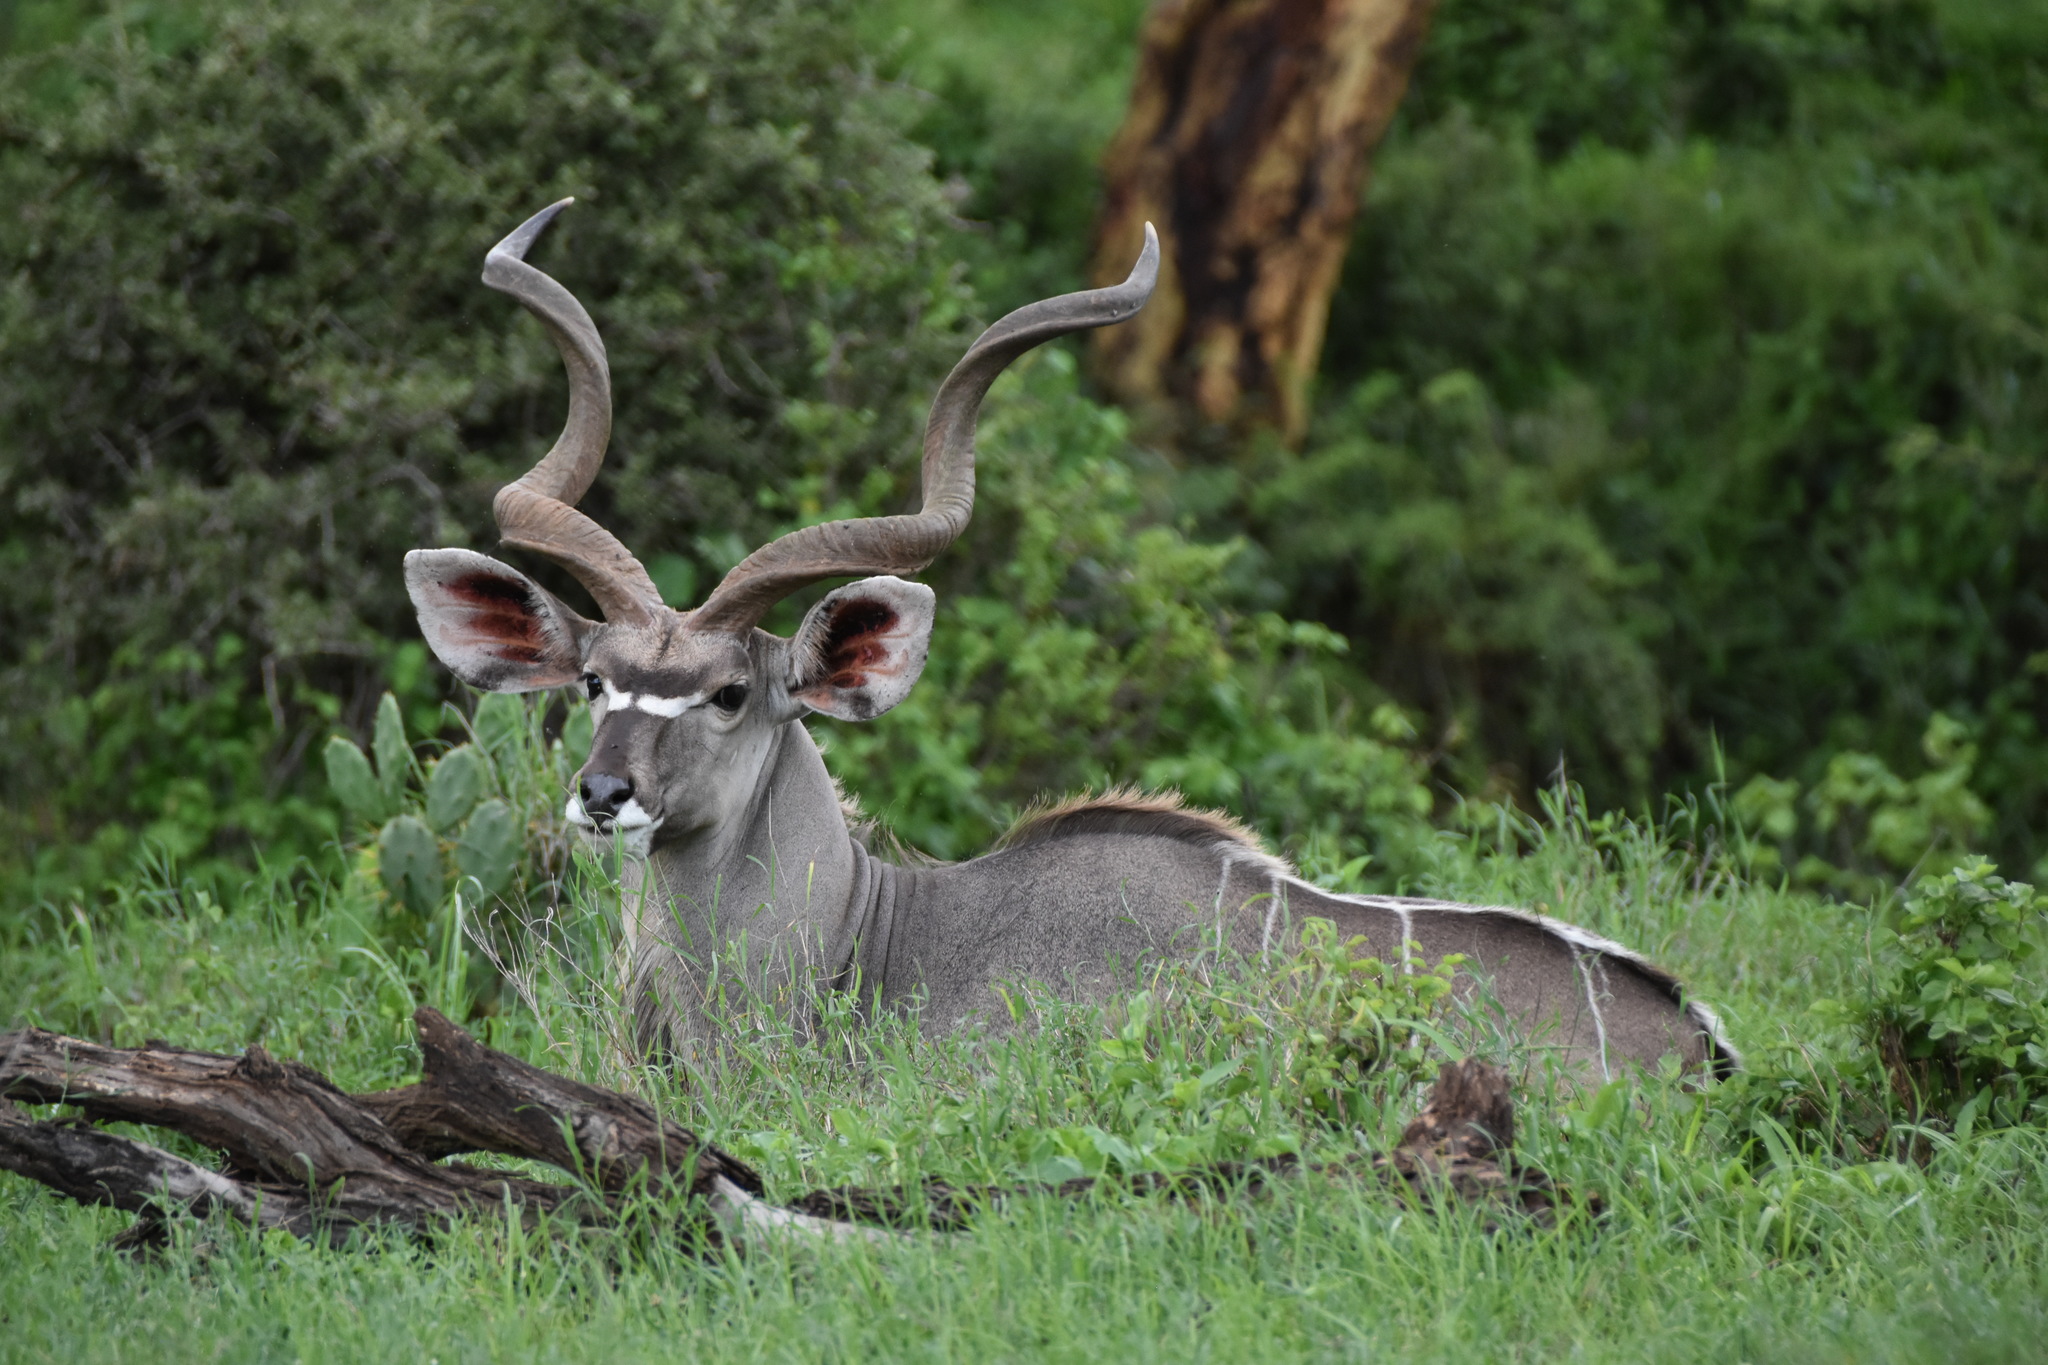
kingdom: Animalia
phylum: Chordata
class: Mammalia
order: Artiodactyla
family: Bovidae
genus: Tragelaphus
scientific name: Tragelaphus strepsiceros
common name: Greater kudu
